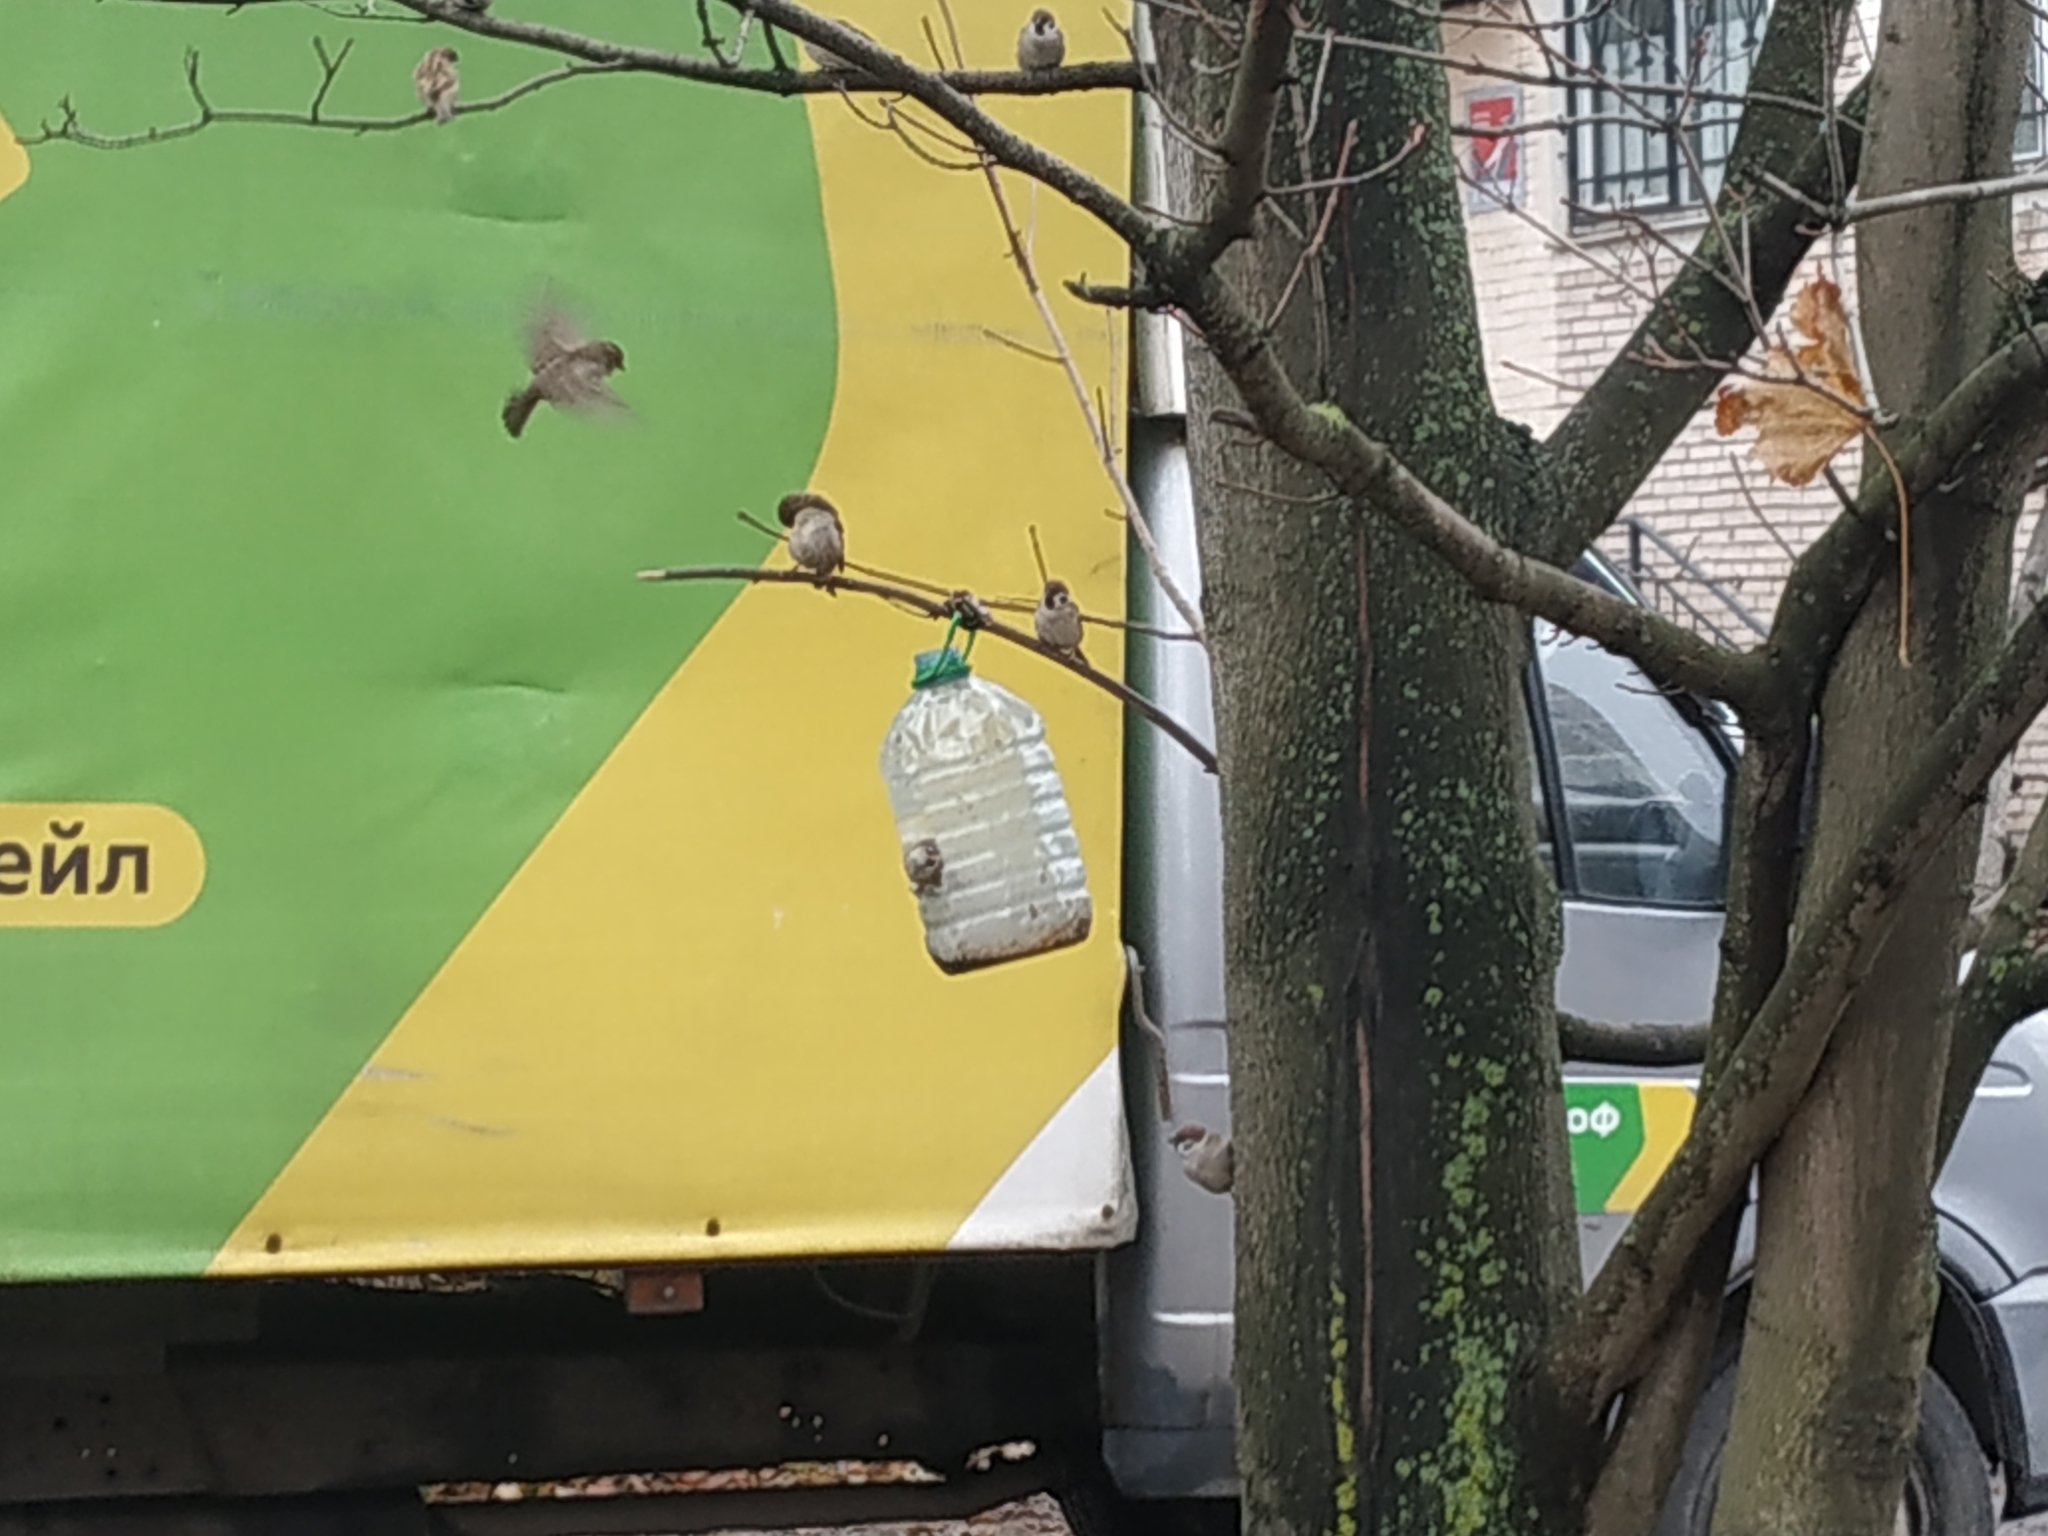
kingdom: Animalia
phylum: Chordata
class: Aves
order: Passeriformes
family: Passeridae
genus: Passer
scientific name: Passer montanus
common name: Eurasian tree sparrow
